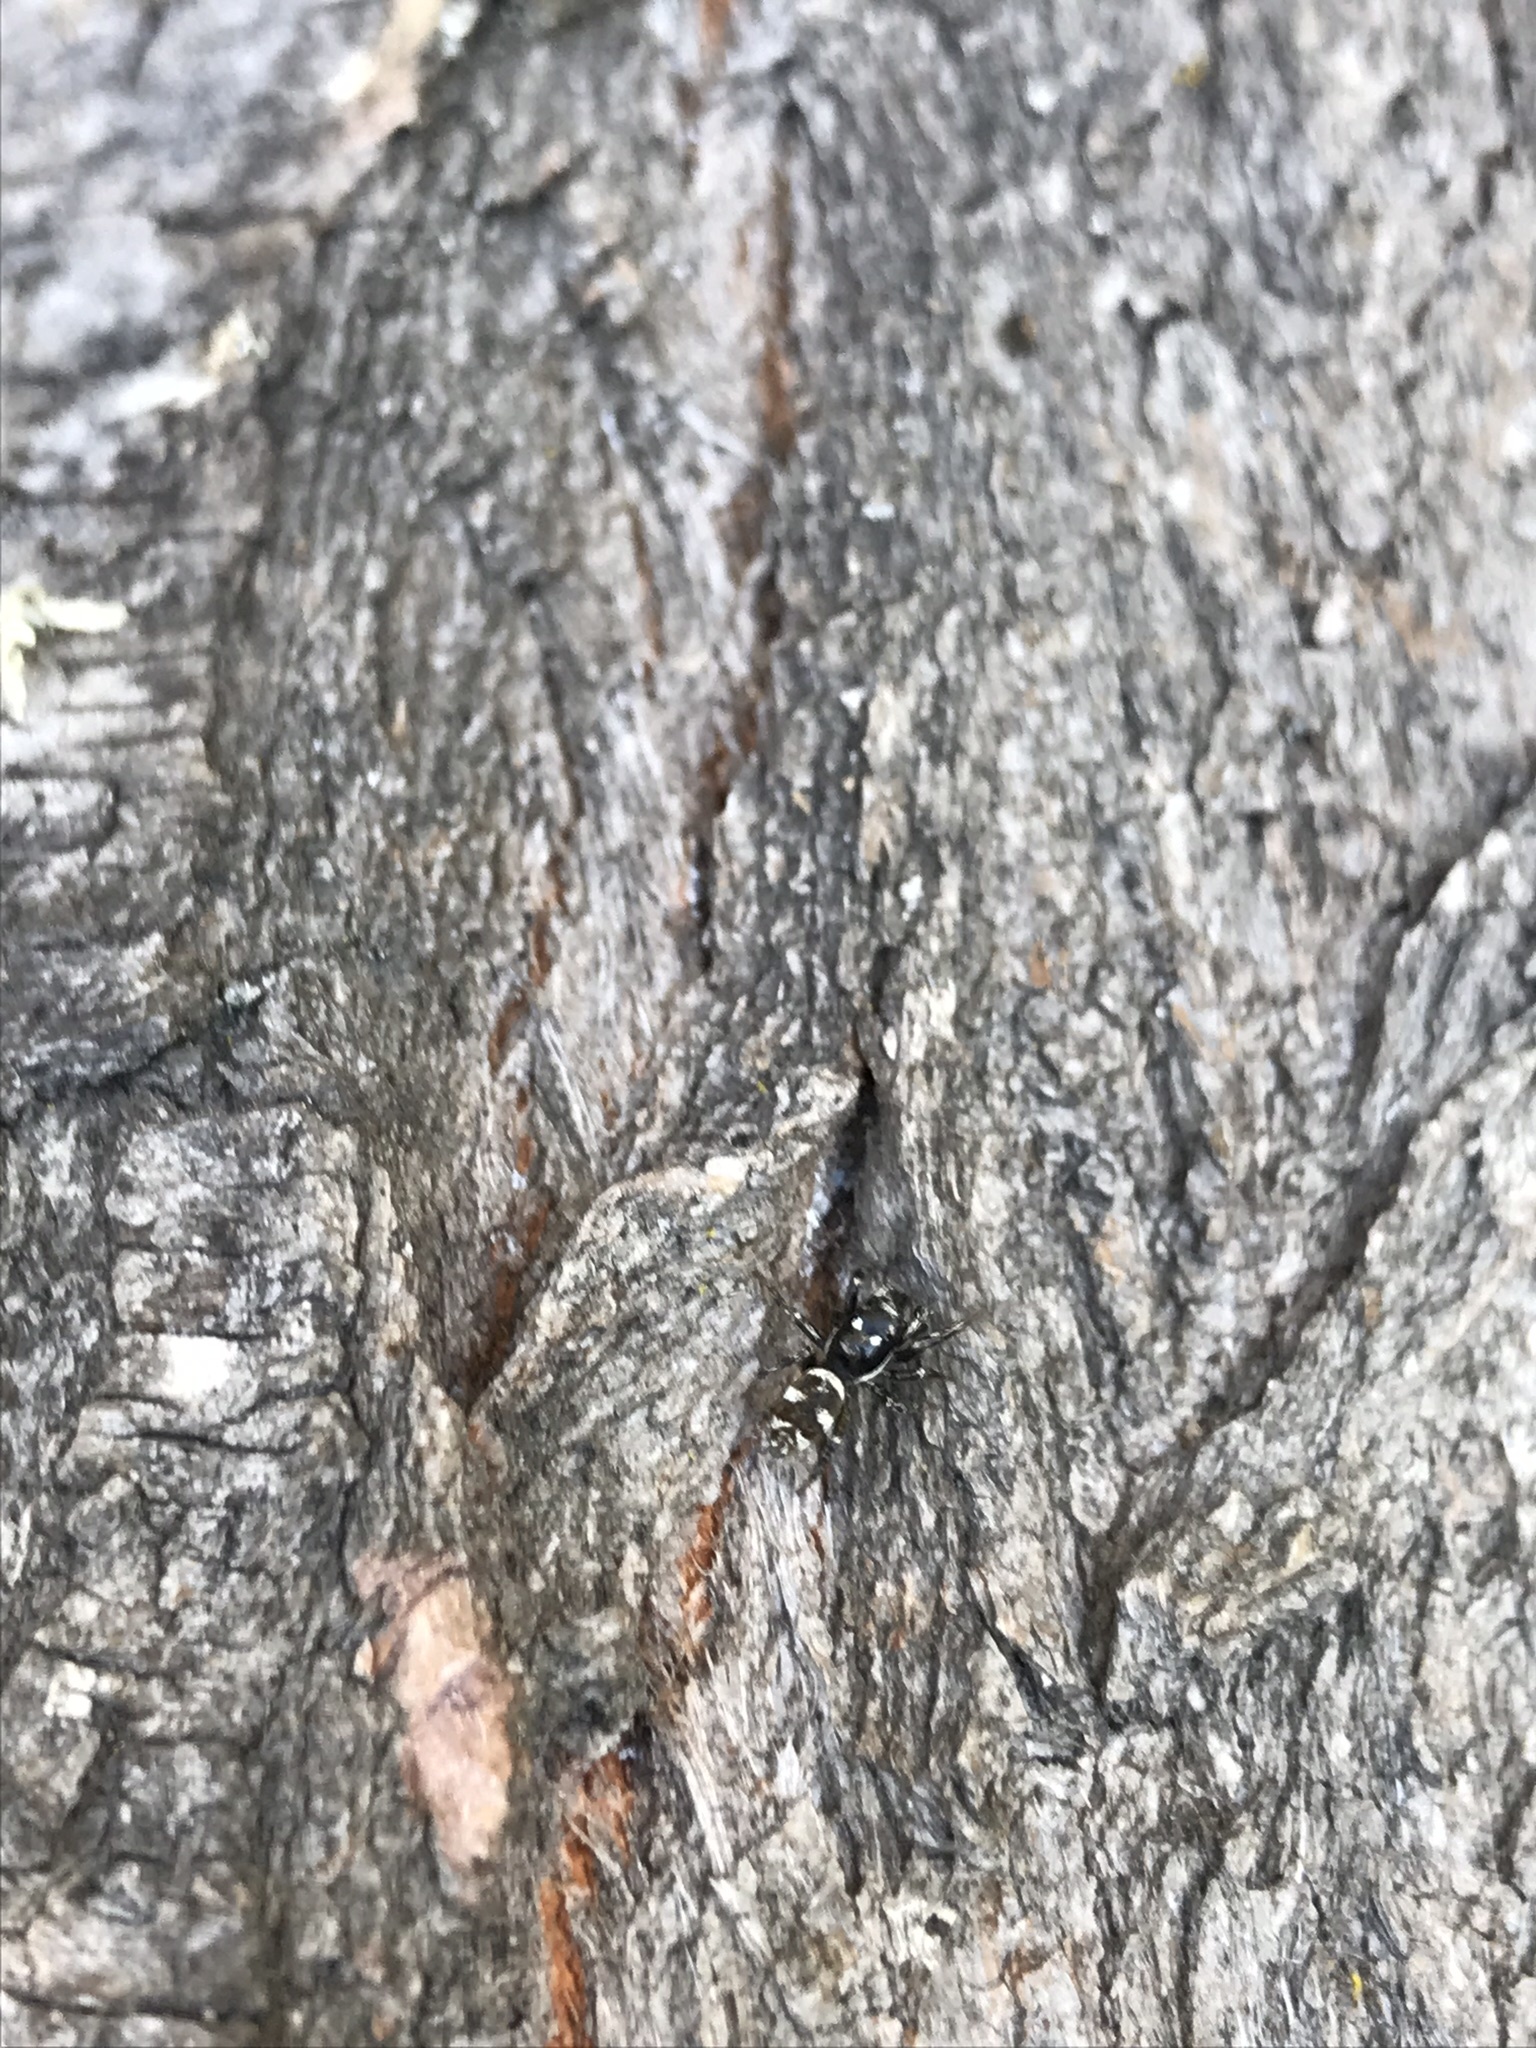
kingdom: Animalia
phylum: Arthropoda
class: Arachnida
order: Araneae
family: Salticidae
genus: Salticus
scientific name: Salticus scenicus
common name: Zebra jumper
